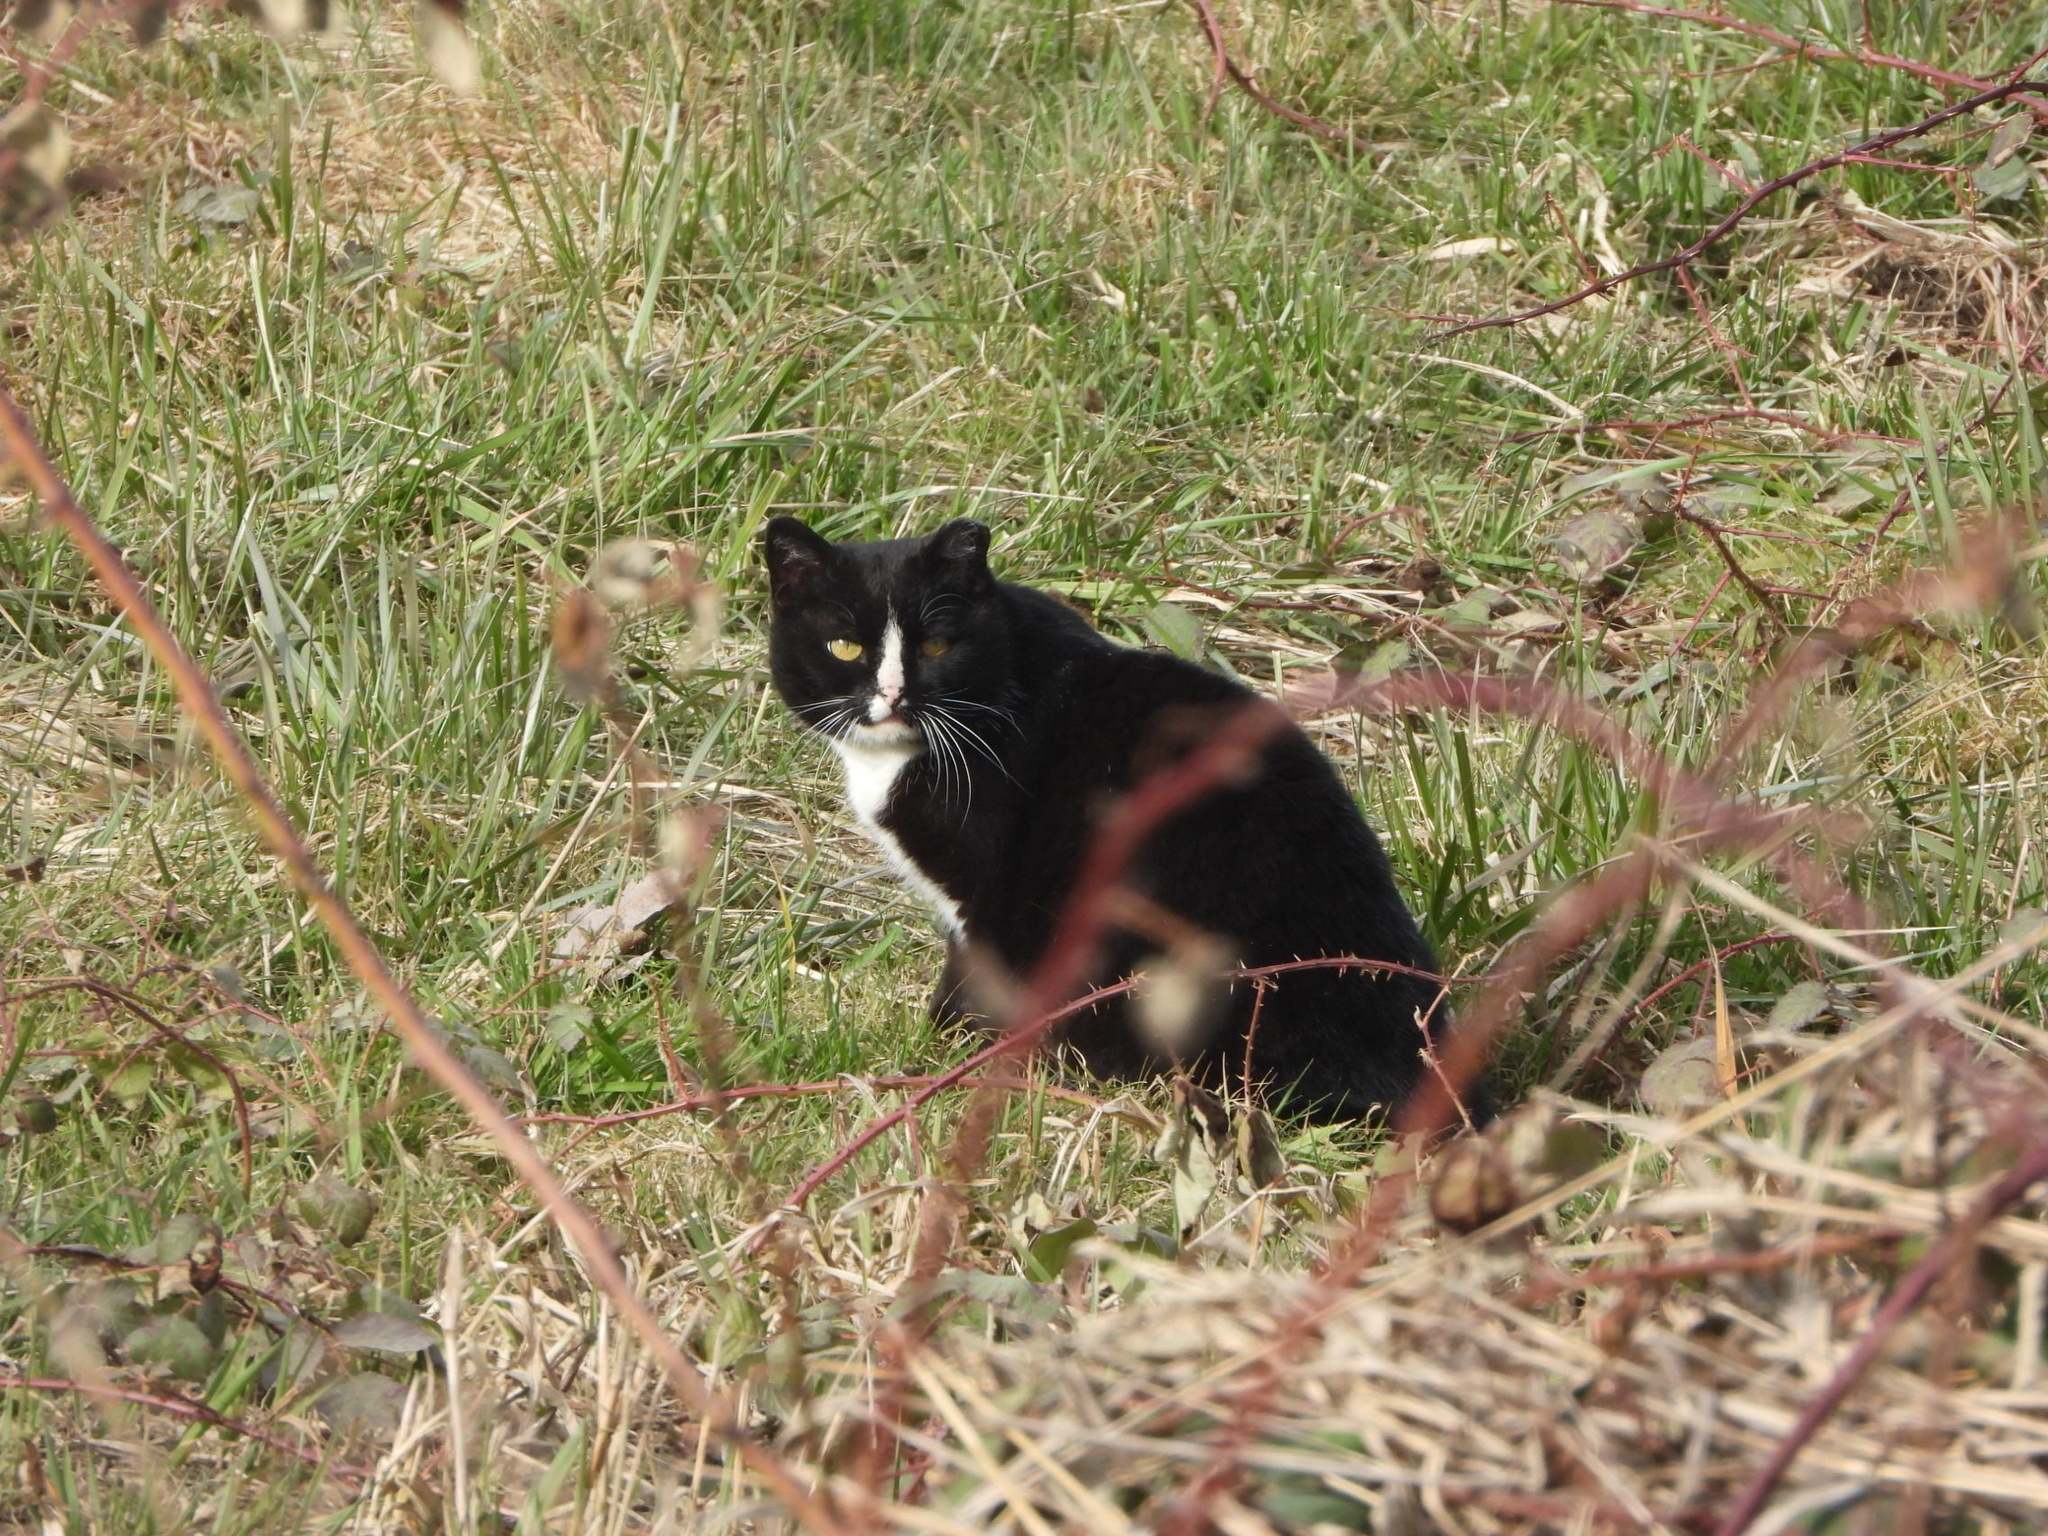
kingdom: Animalia
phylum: Chordata
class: Mammalia
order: Carnivora
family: Felidae
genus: Felis
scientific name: Felis catus
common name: Domestic cat
